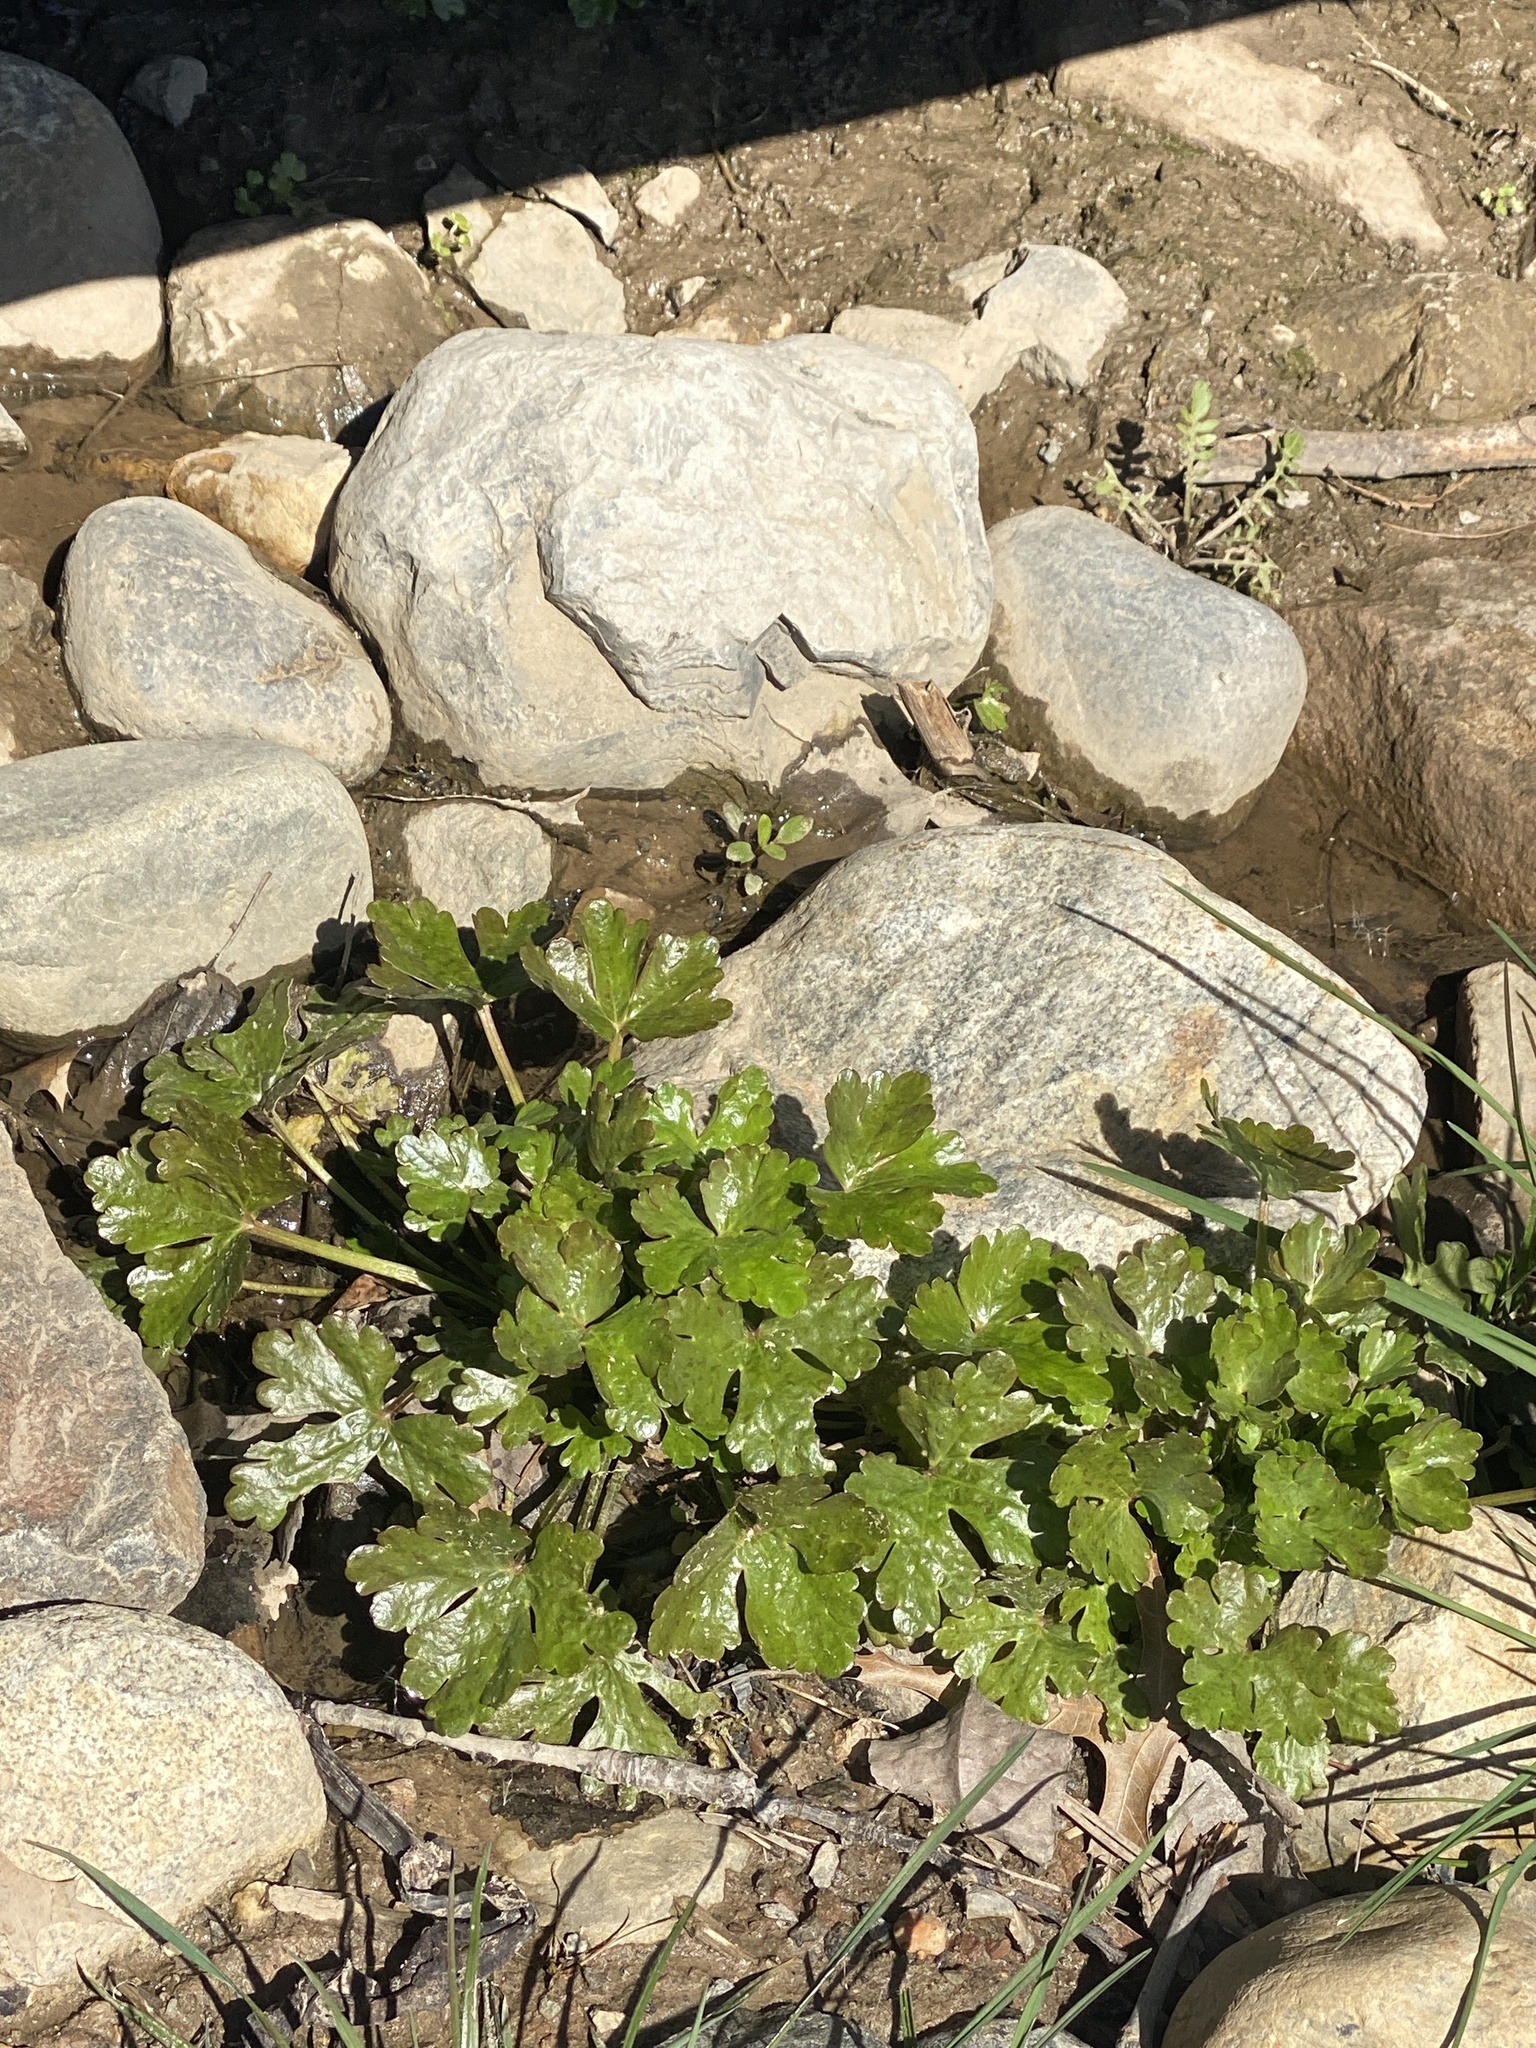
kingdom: Plantae
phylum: Tracheophyta
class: Magnoliopsida
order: Ranunculales
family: Ranunculaceae
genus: Ranunculus
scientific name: Ranunculus sceleratus
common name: Celery-leaved buttercup
